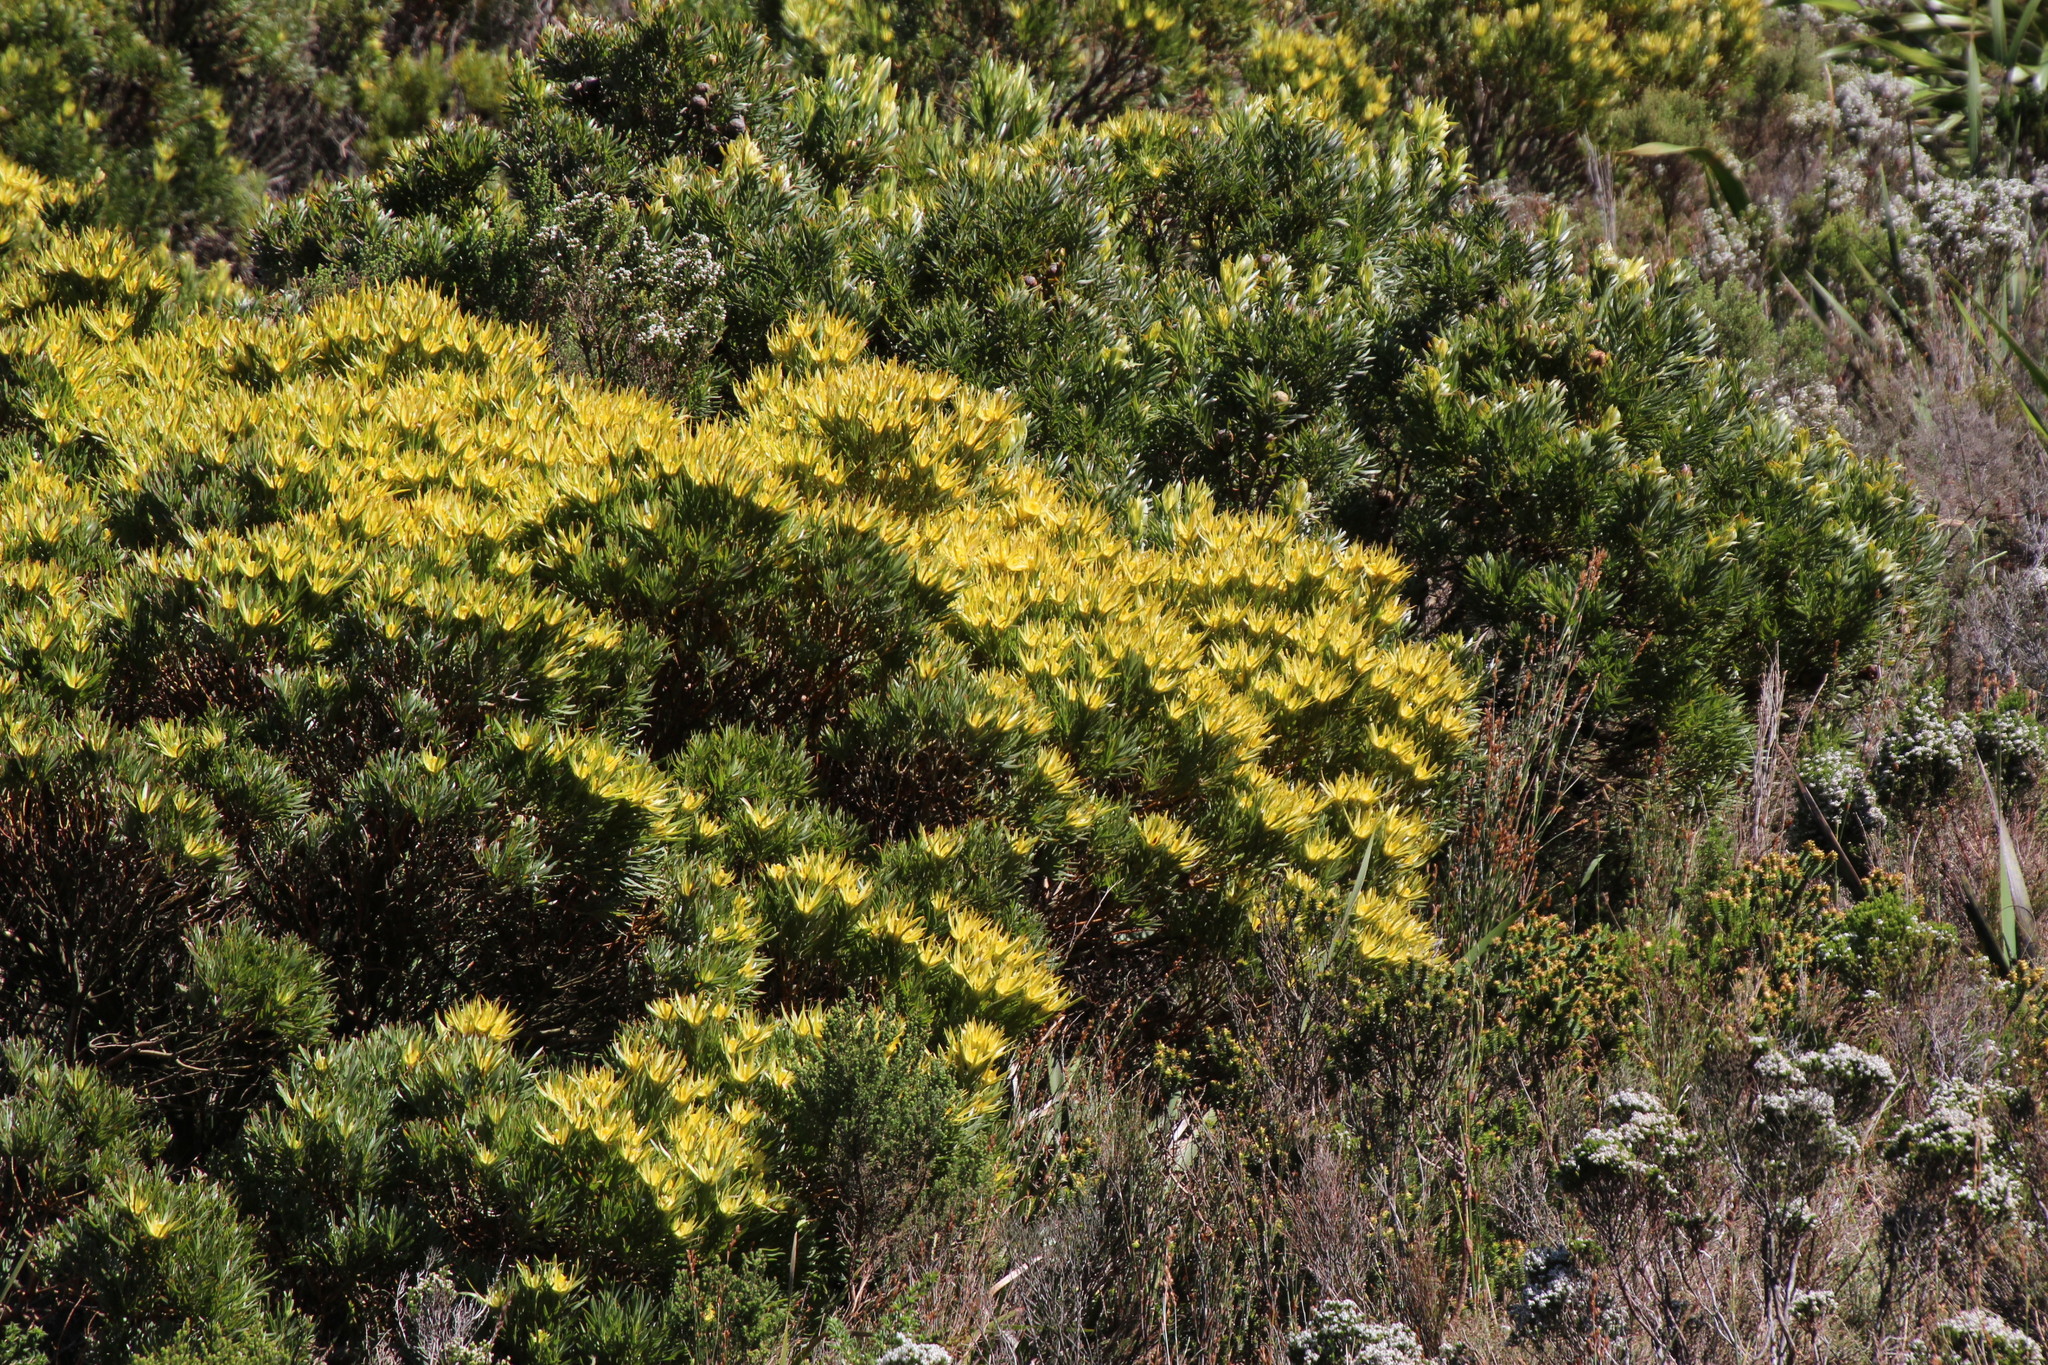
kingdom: Plantae
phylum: Tracheophyta
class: Magnoliopsida
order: Proteales
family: Proteaceae
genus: Leucadendron
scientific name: Leucadendron xanthoconus
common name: Sickle-leaf conebush
